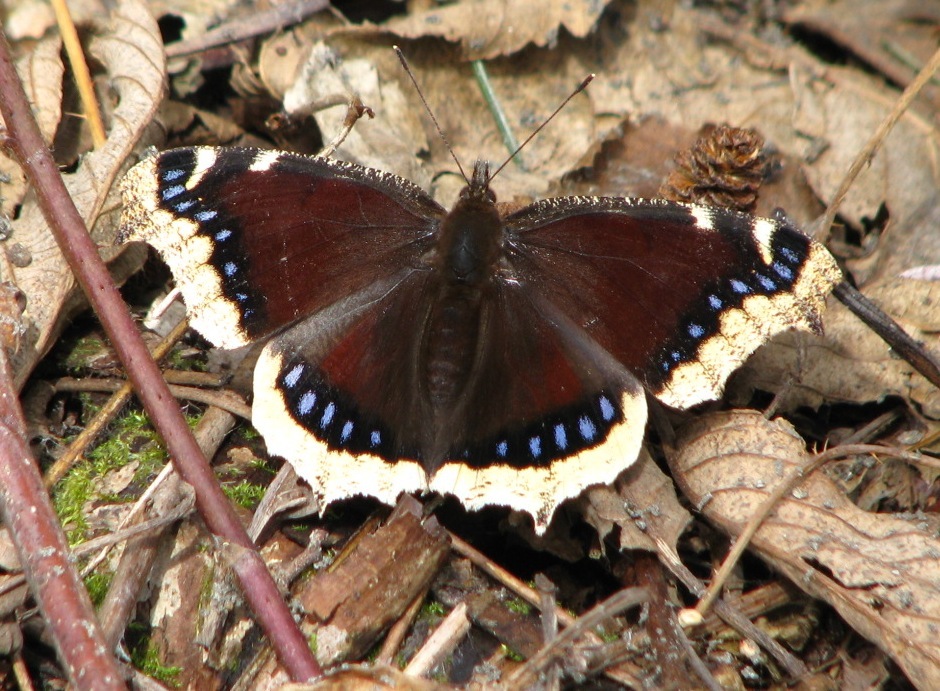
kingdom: Animalia
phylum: Arthropoda
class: Insecta
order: Lepidoptera
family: Nymphalidae
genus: Nymphalis
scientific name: Nymphalis antiopa
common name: Camberwell beauty
